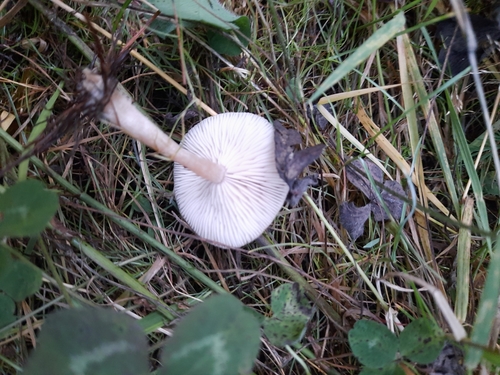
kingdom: Fungi
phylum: Basidiomycota
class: Agaricomycetes
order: Agaricales
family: Tricholomataceae
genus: Clitocybe
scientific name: Clitocybe
